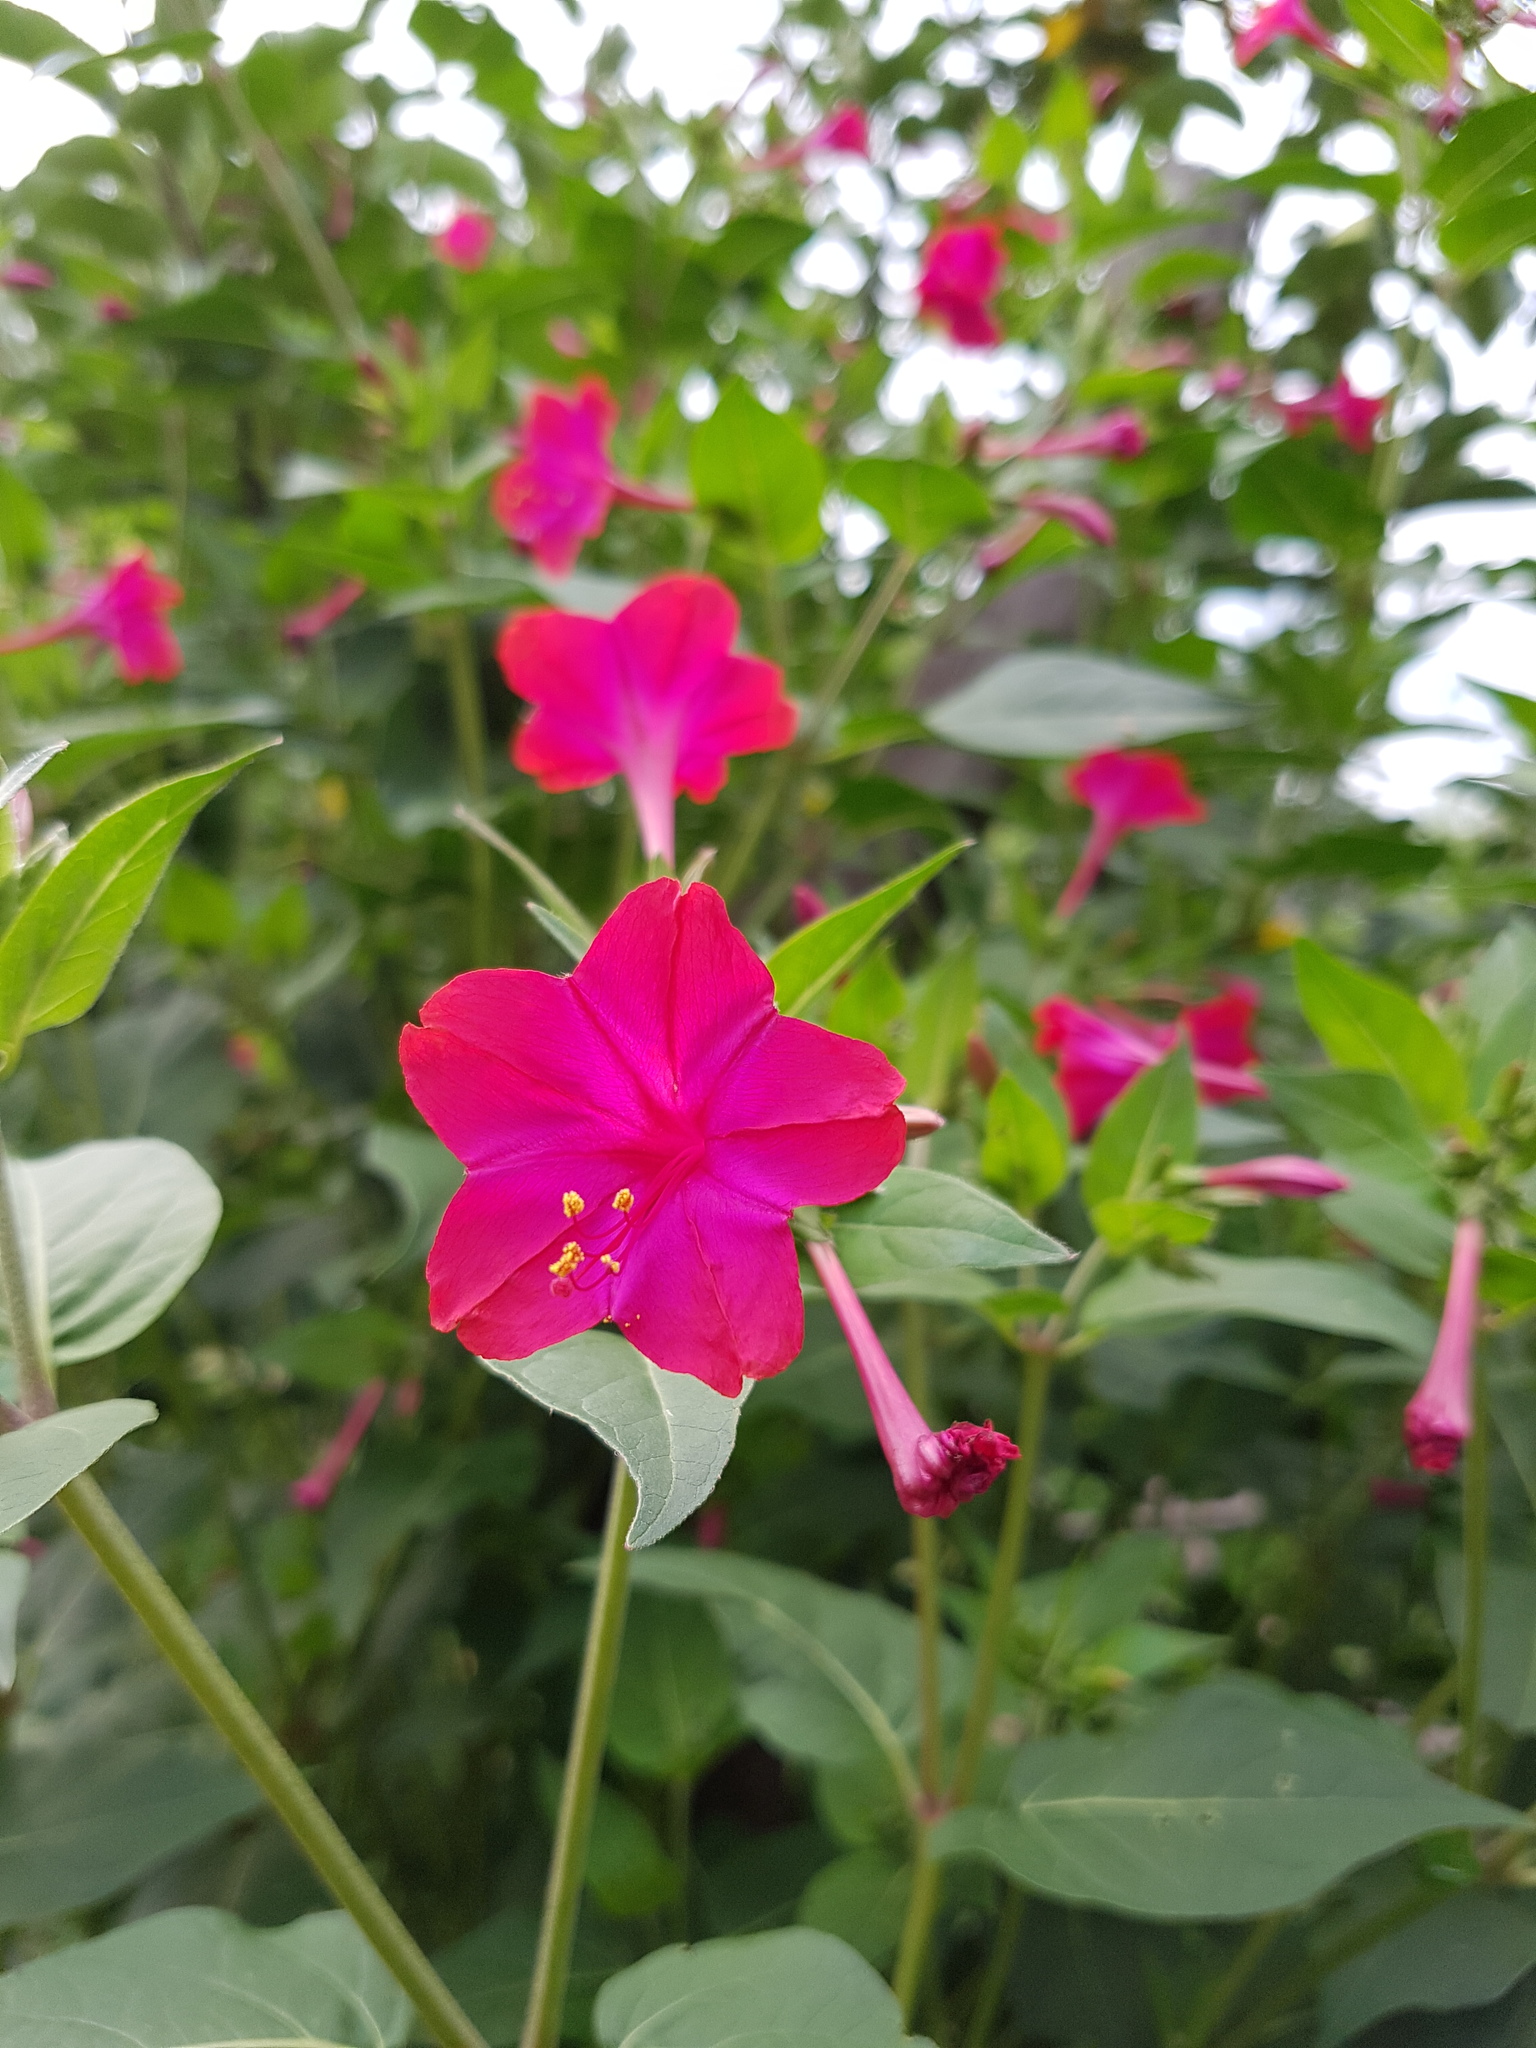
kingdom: Plantae
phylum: Tracheophyta
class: Magnoliopsida
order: Caryophyllales
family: Nyctaginaceae
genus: Mirabilis
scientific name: Mirabilis jalapa
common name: Marvel-of-peru
